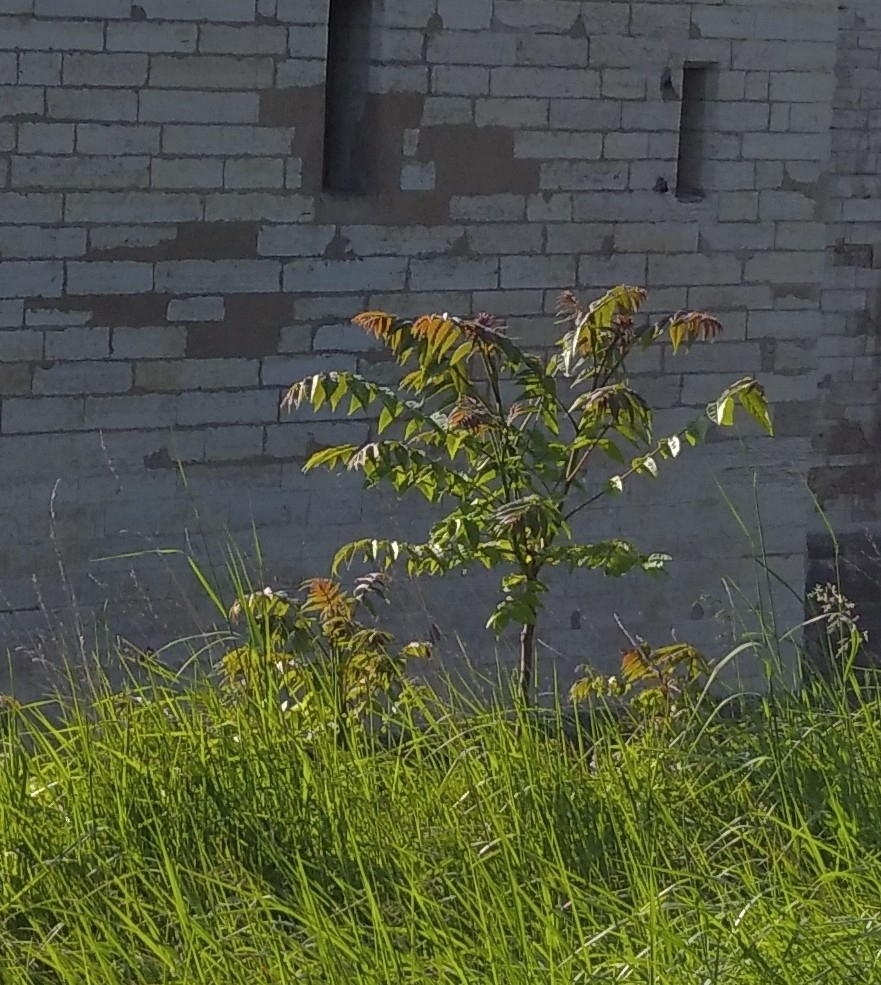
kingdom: Plantae
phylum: Tracheophyta
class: Magnoliopsida
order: Sapindales
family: Simaroubaceae
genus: Ailanthus
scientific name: Ailanthus altissima
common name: Tree-of-heaven
